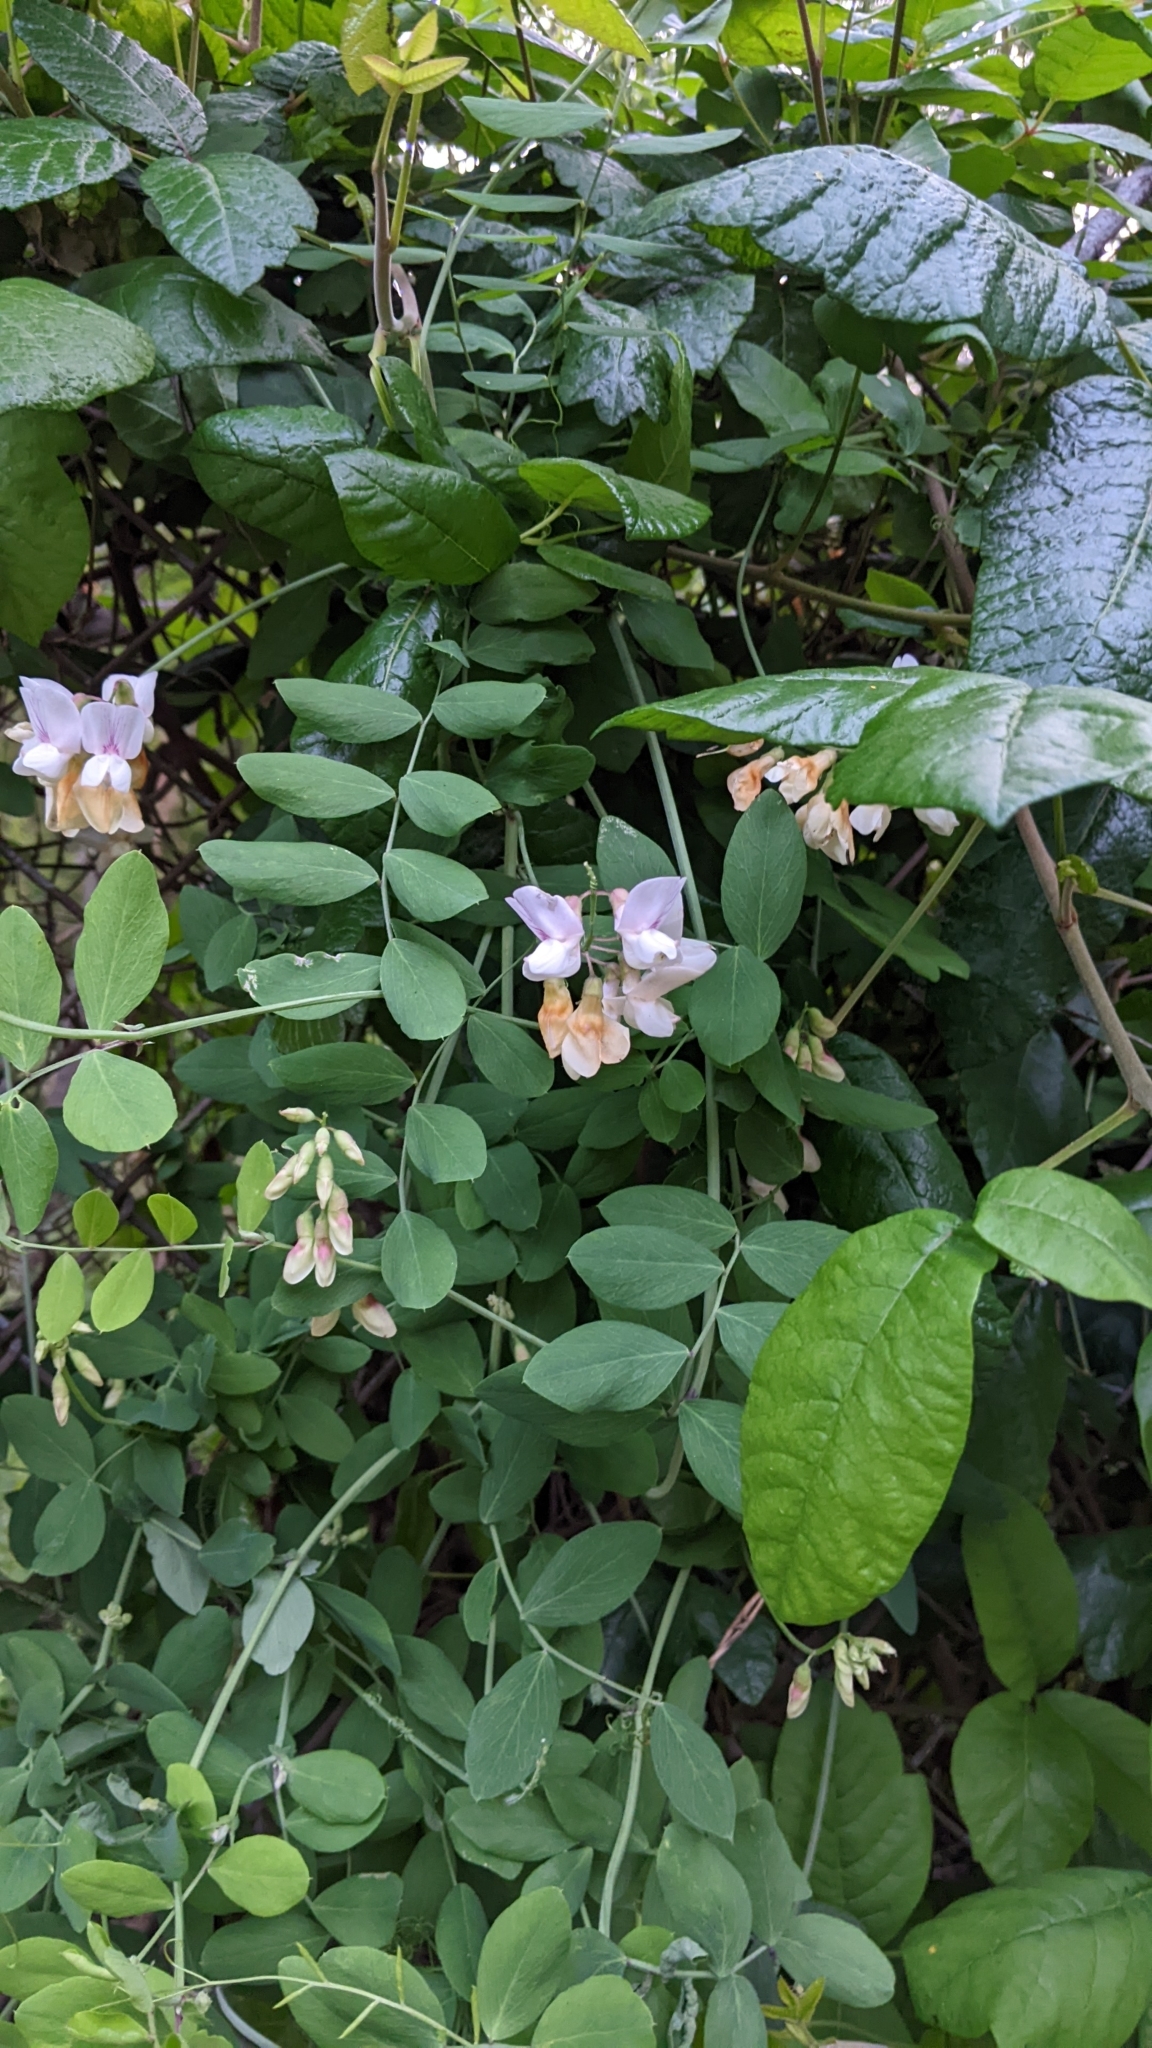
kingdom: Plantae
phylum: Tracheophyta
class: Magnoliopsida
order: Fabales
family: Fabaceae
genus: Lathyrus
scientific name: Lathyrus vestitus
